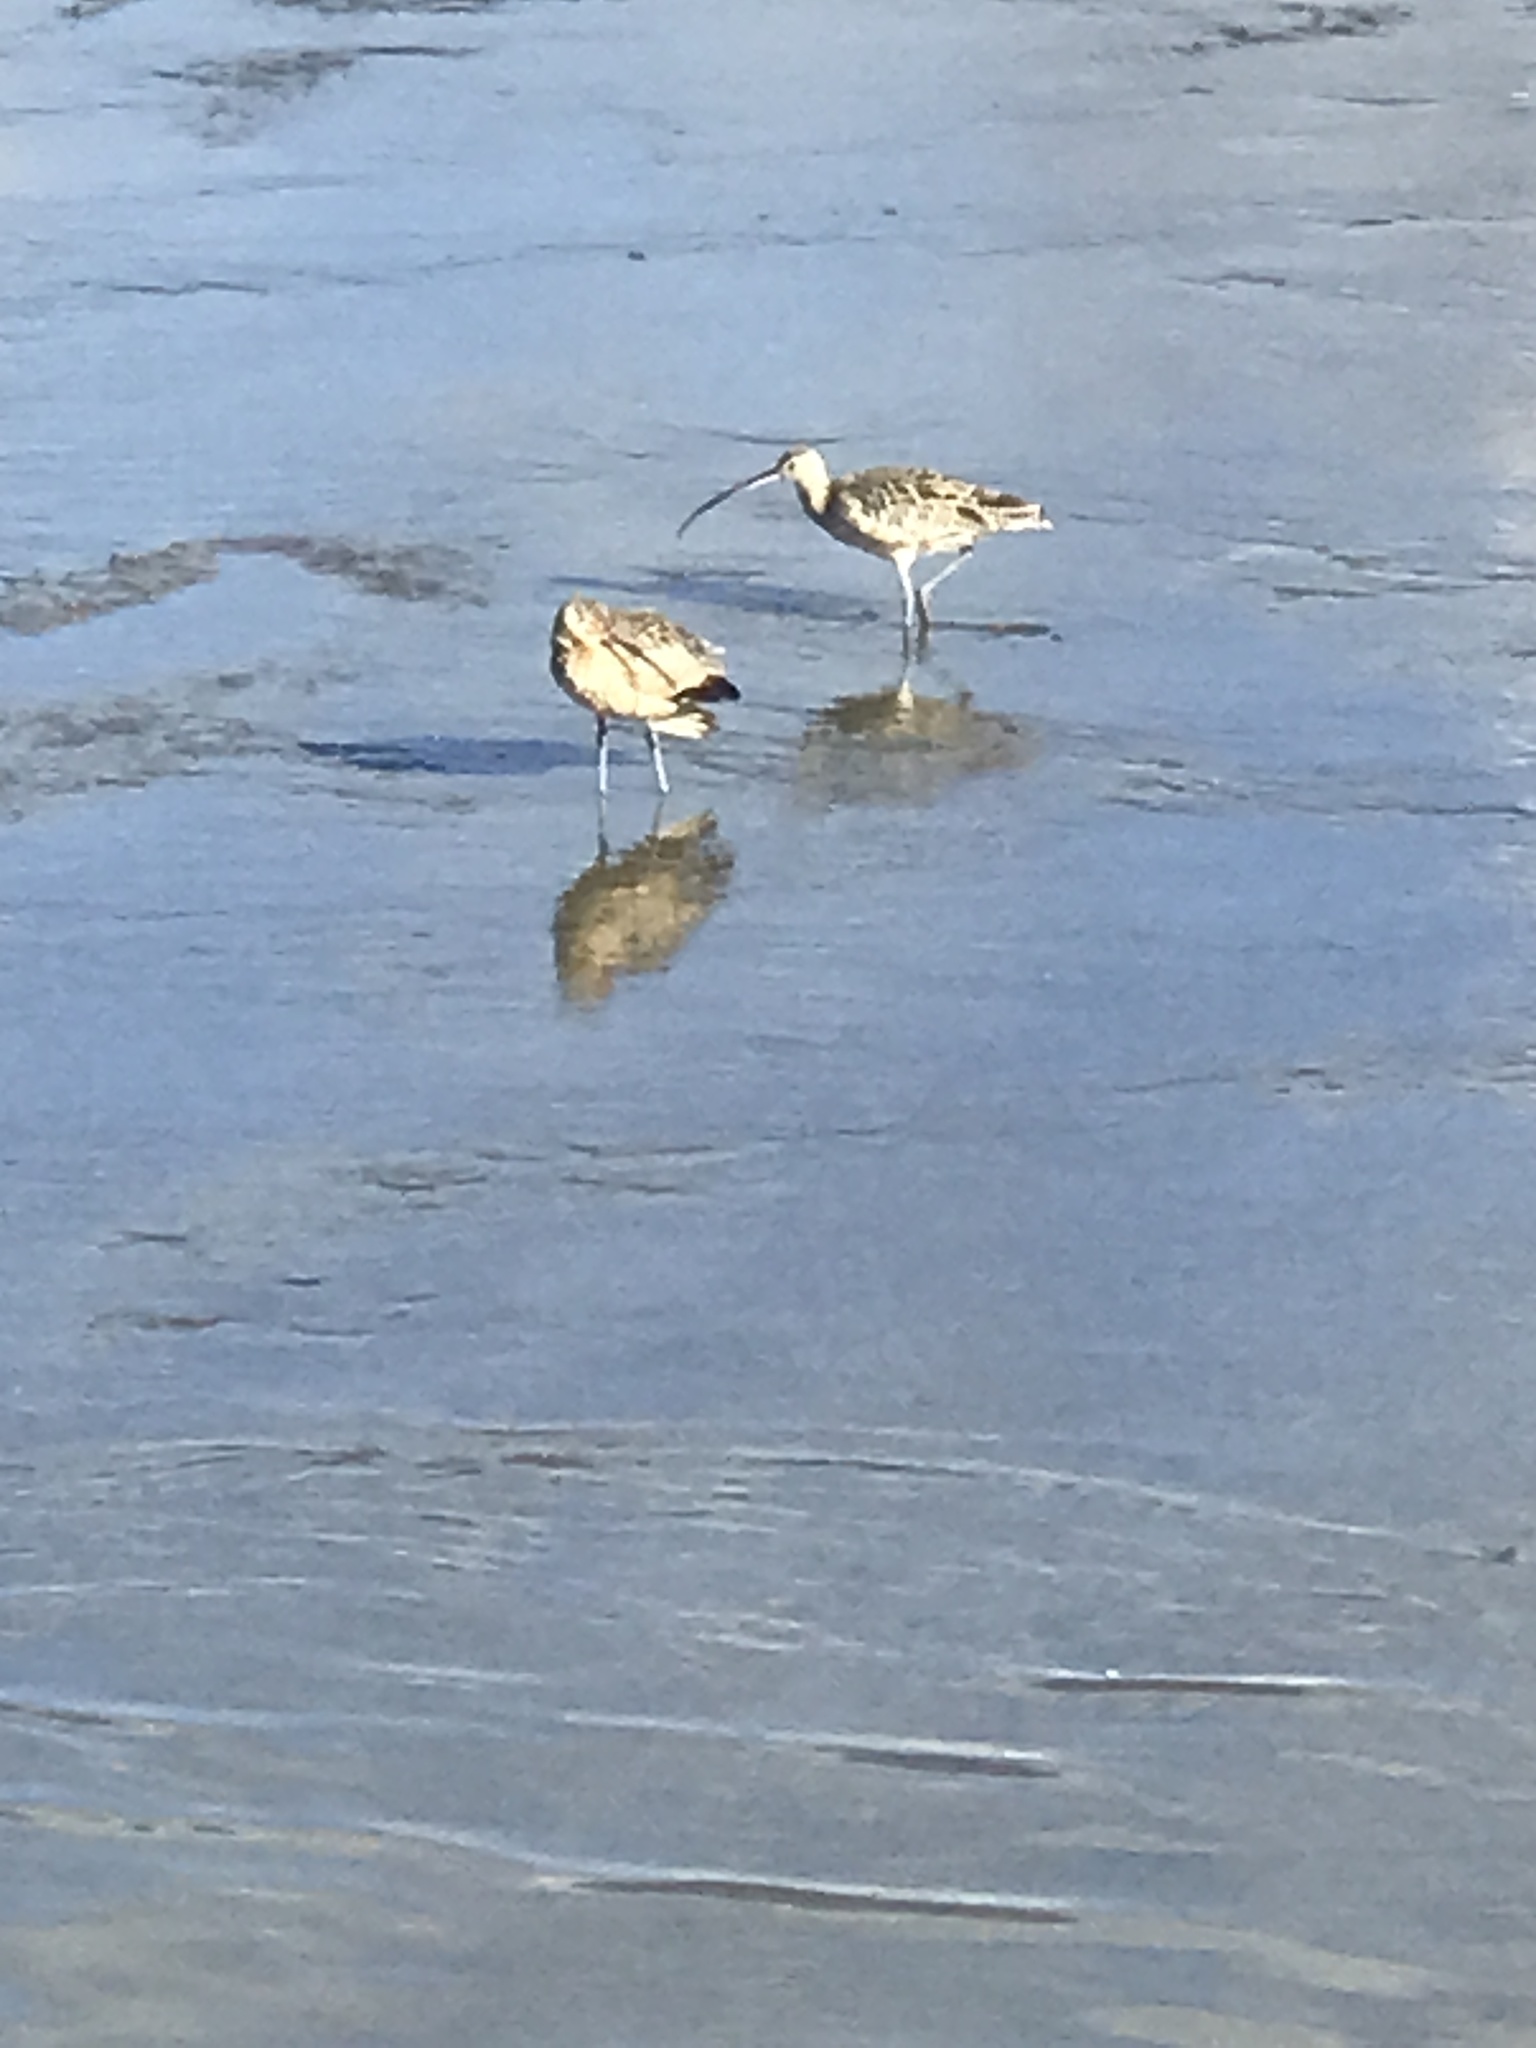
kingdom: Animalia
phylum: Chordata
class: Aves
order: Charadriiformes
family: Scolopacidae
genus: Numenius
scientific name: Numenius americanus
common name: Long-billed curlew
